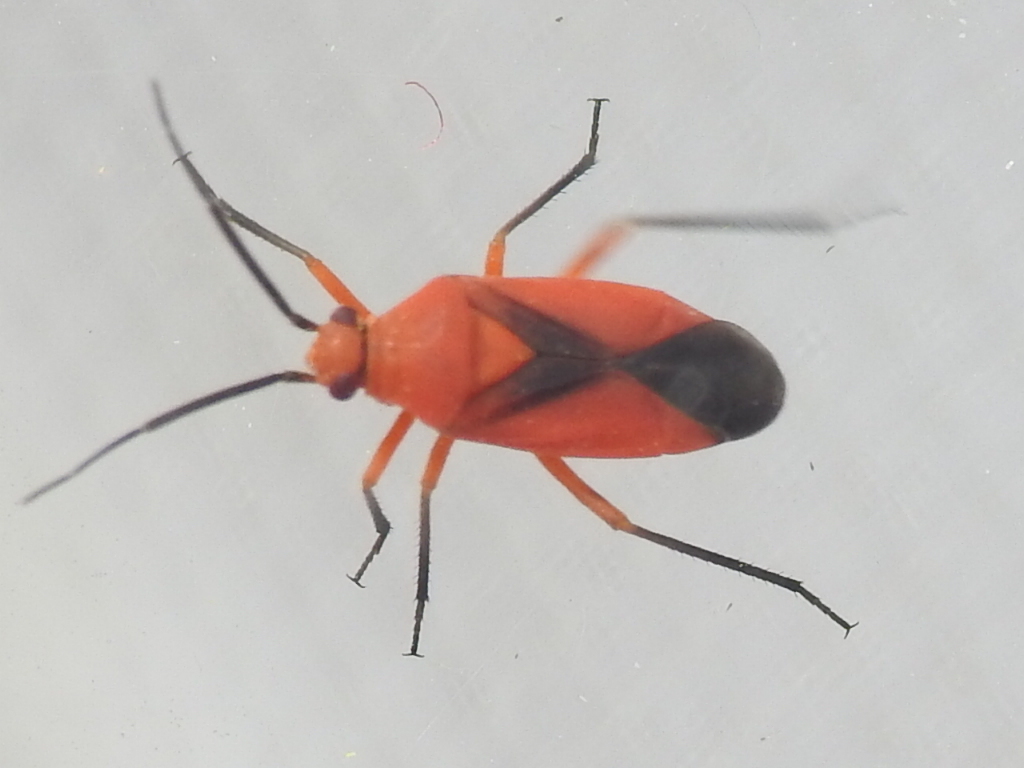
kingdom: Animalia
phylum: Arthropoda
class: Insecta
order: Hemiptera
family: Miridae
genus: Oncerometopus
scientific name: Oncerometopus nigriclavus
